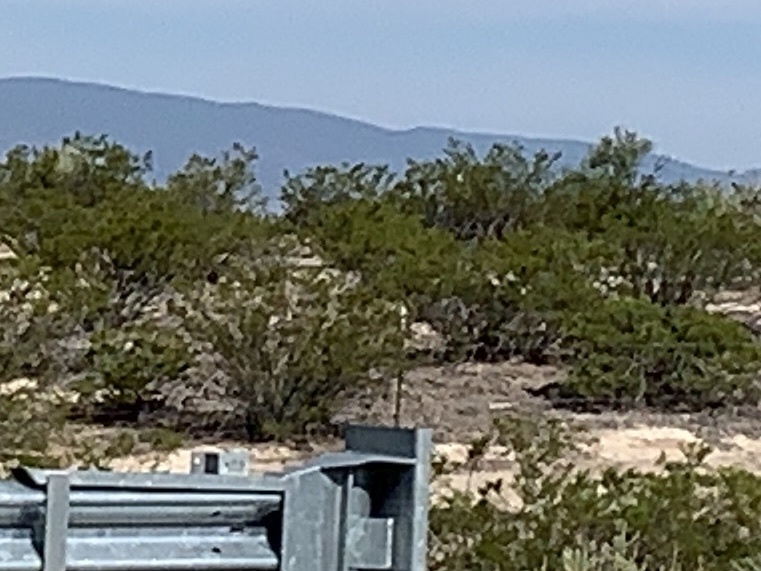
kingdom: Plantae
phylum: Tracheophyta
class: Magnoliopsida
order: Zygophyllales
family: Zygophyllaceae
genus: Larrea
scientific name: Larrea tridentata
